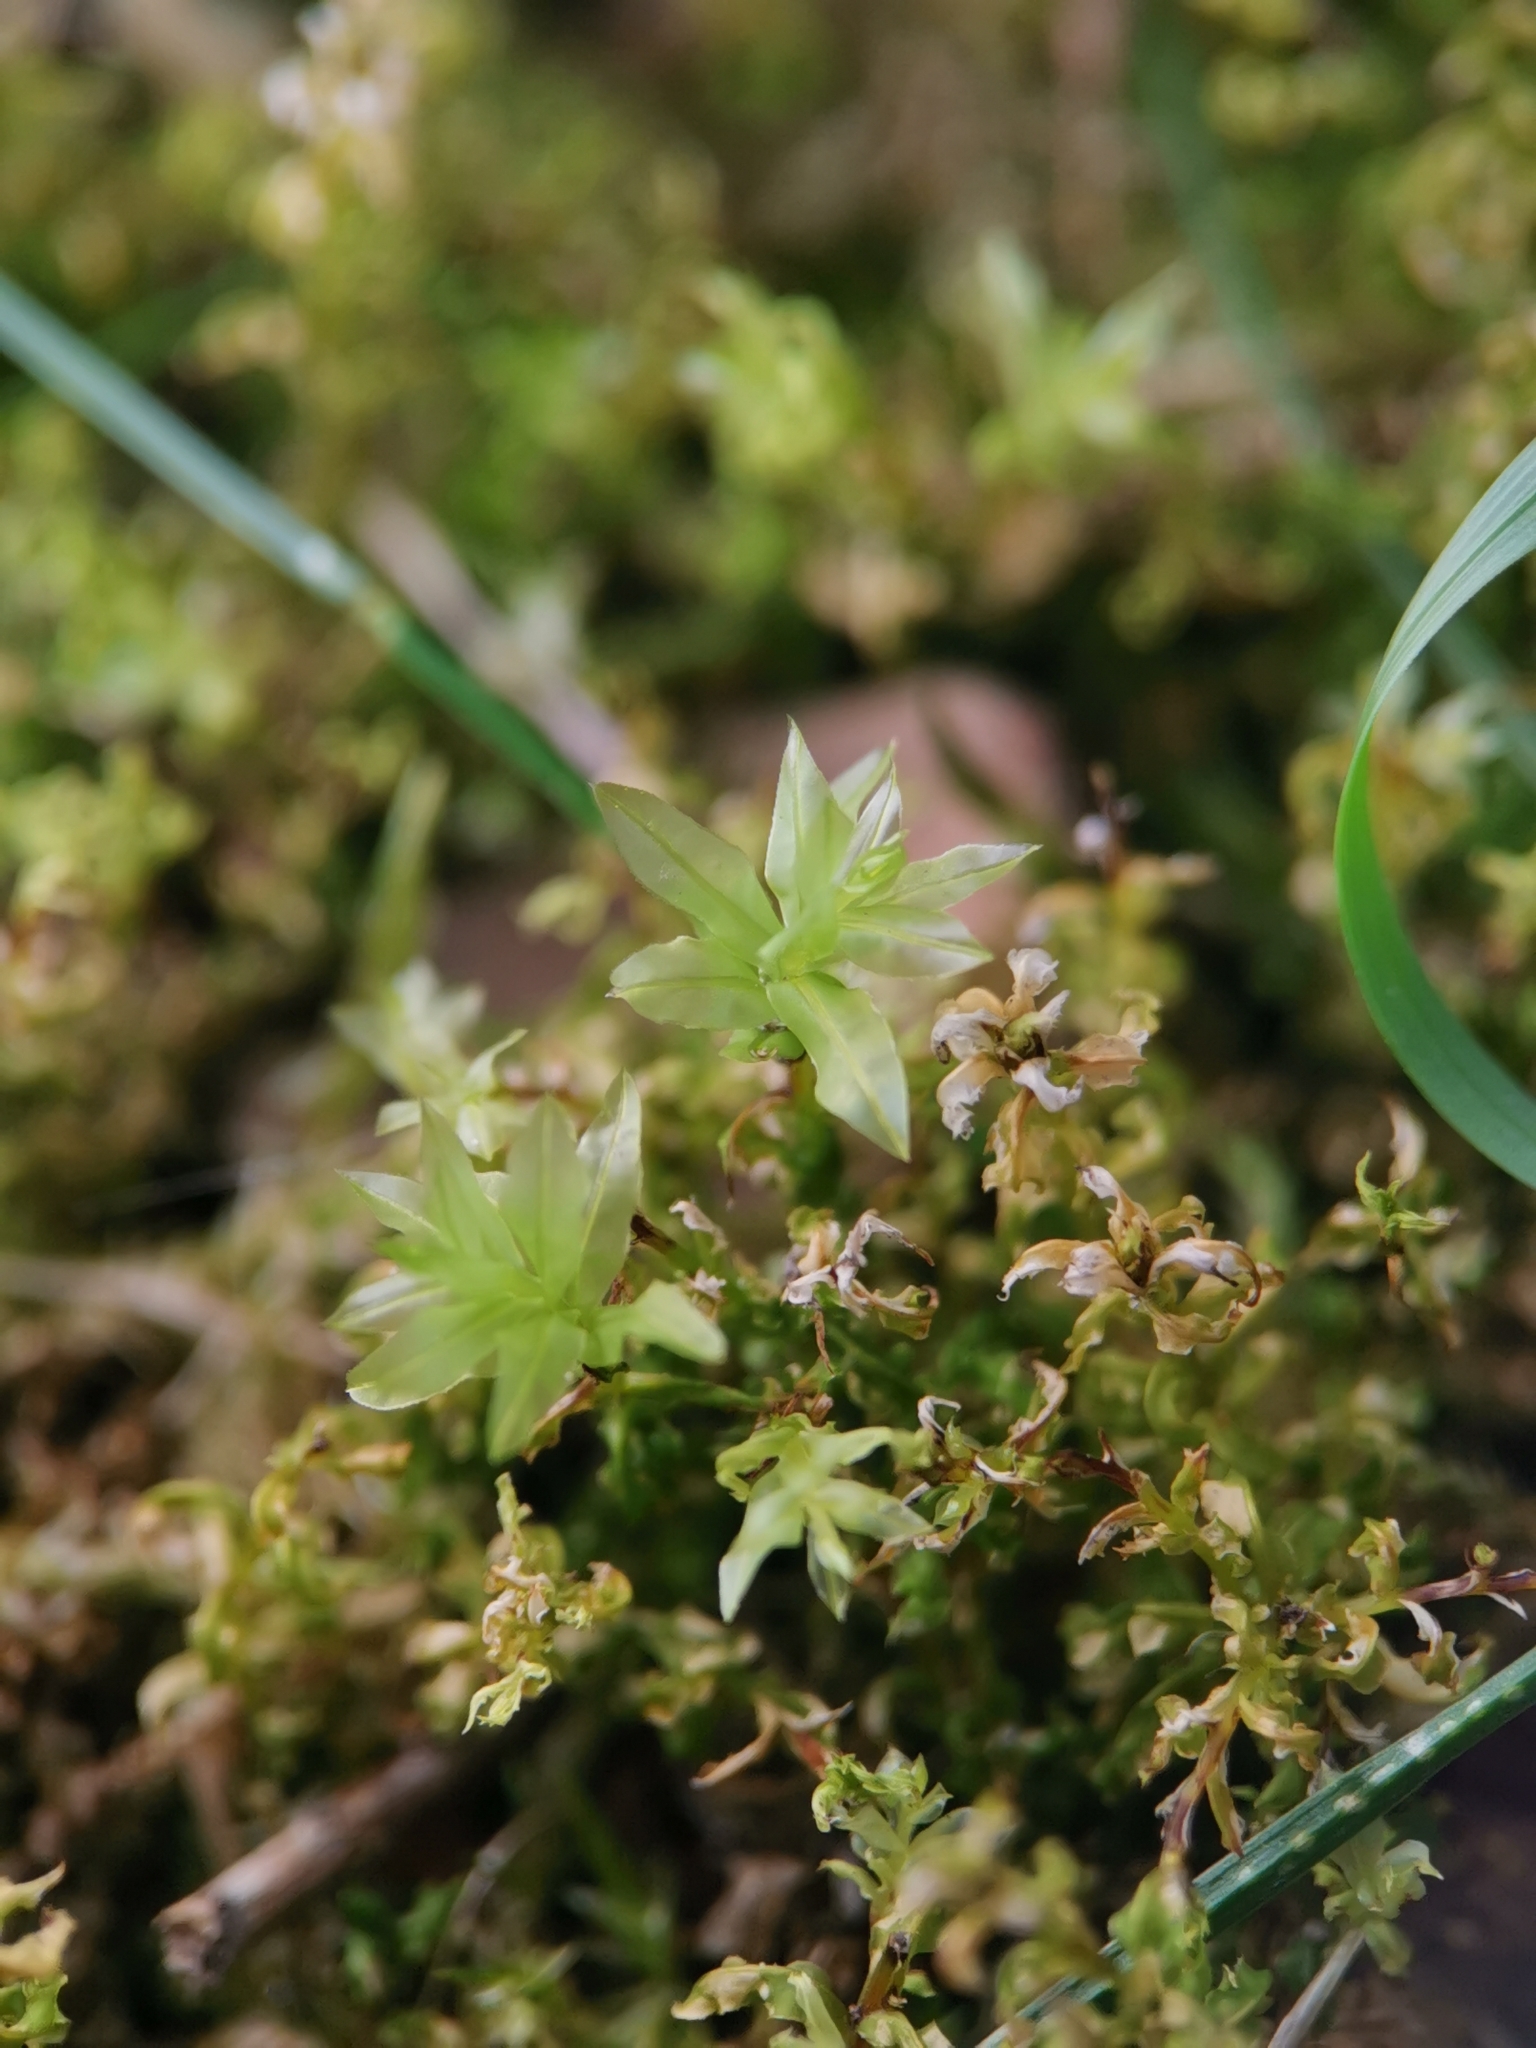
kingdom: Plantae
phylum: Bryophyta
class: Bryopsida
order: Bryales
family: Mniaceae
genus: Plagiomnium
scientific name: Plagiomnium undulatum
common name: Hart's-tongue thyme-moss
